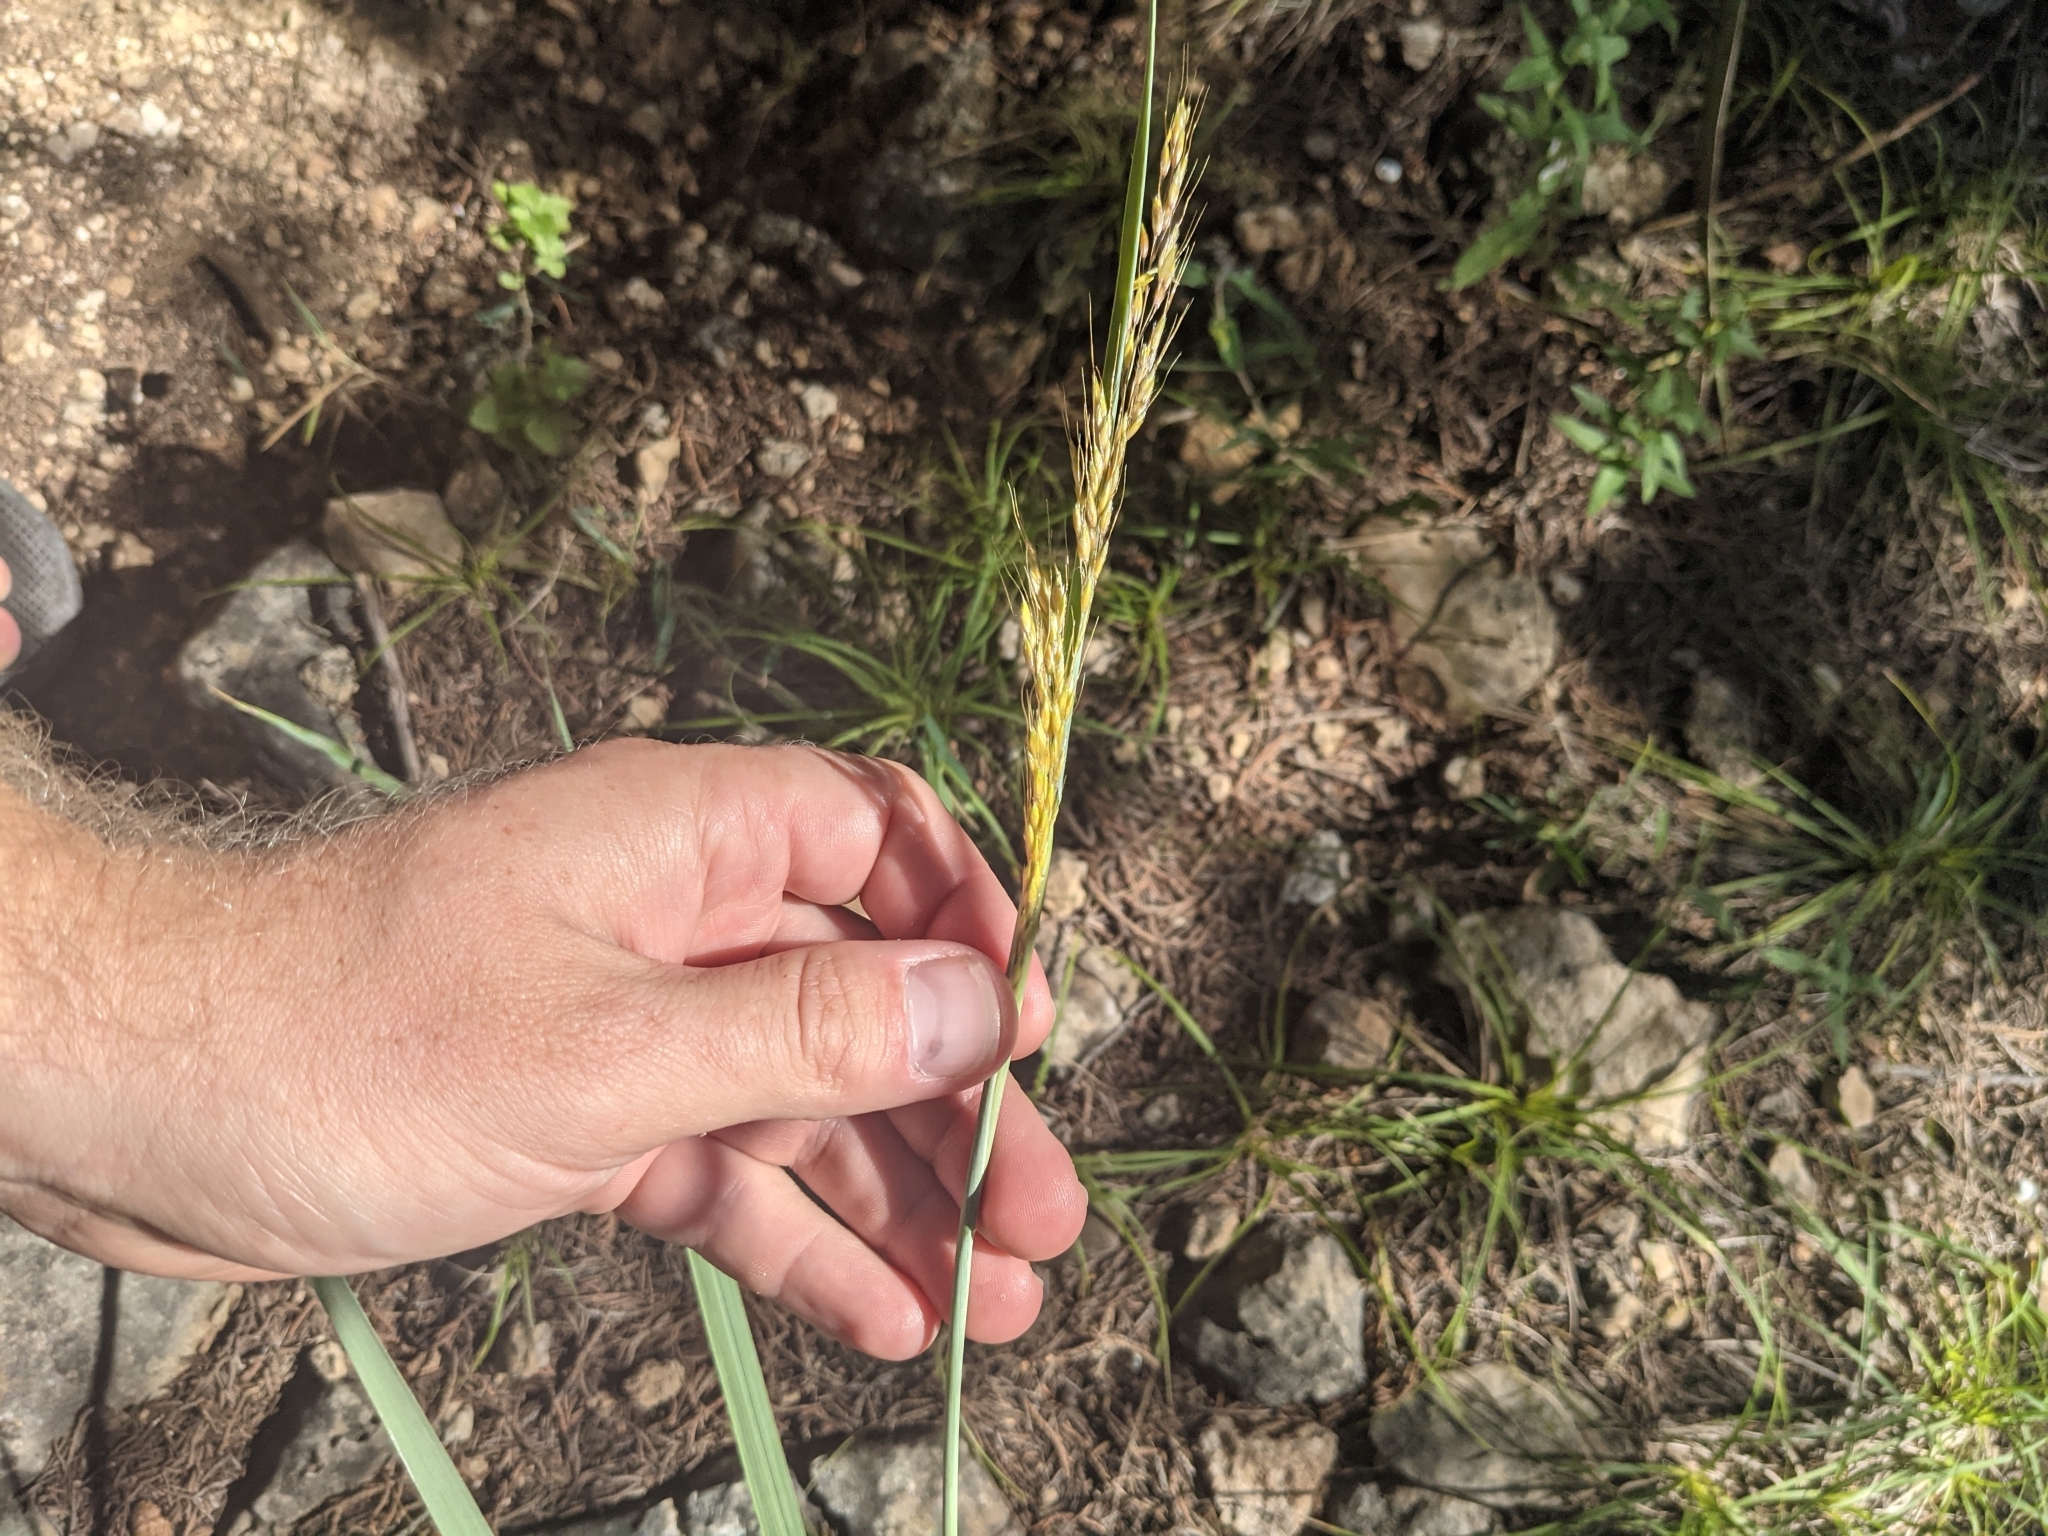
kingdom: Plantae
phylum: Tracheophyta
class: Liliopsida
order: Poales
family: Poaceae
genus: Sorghastrum
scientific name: Sorghastrum nutans
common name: Indian grass
